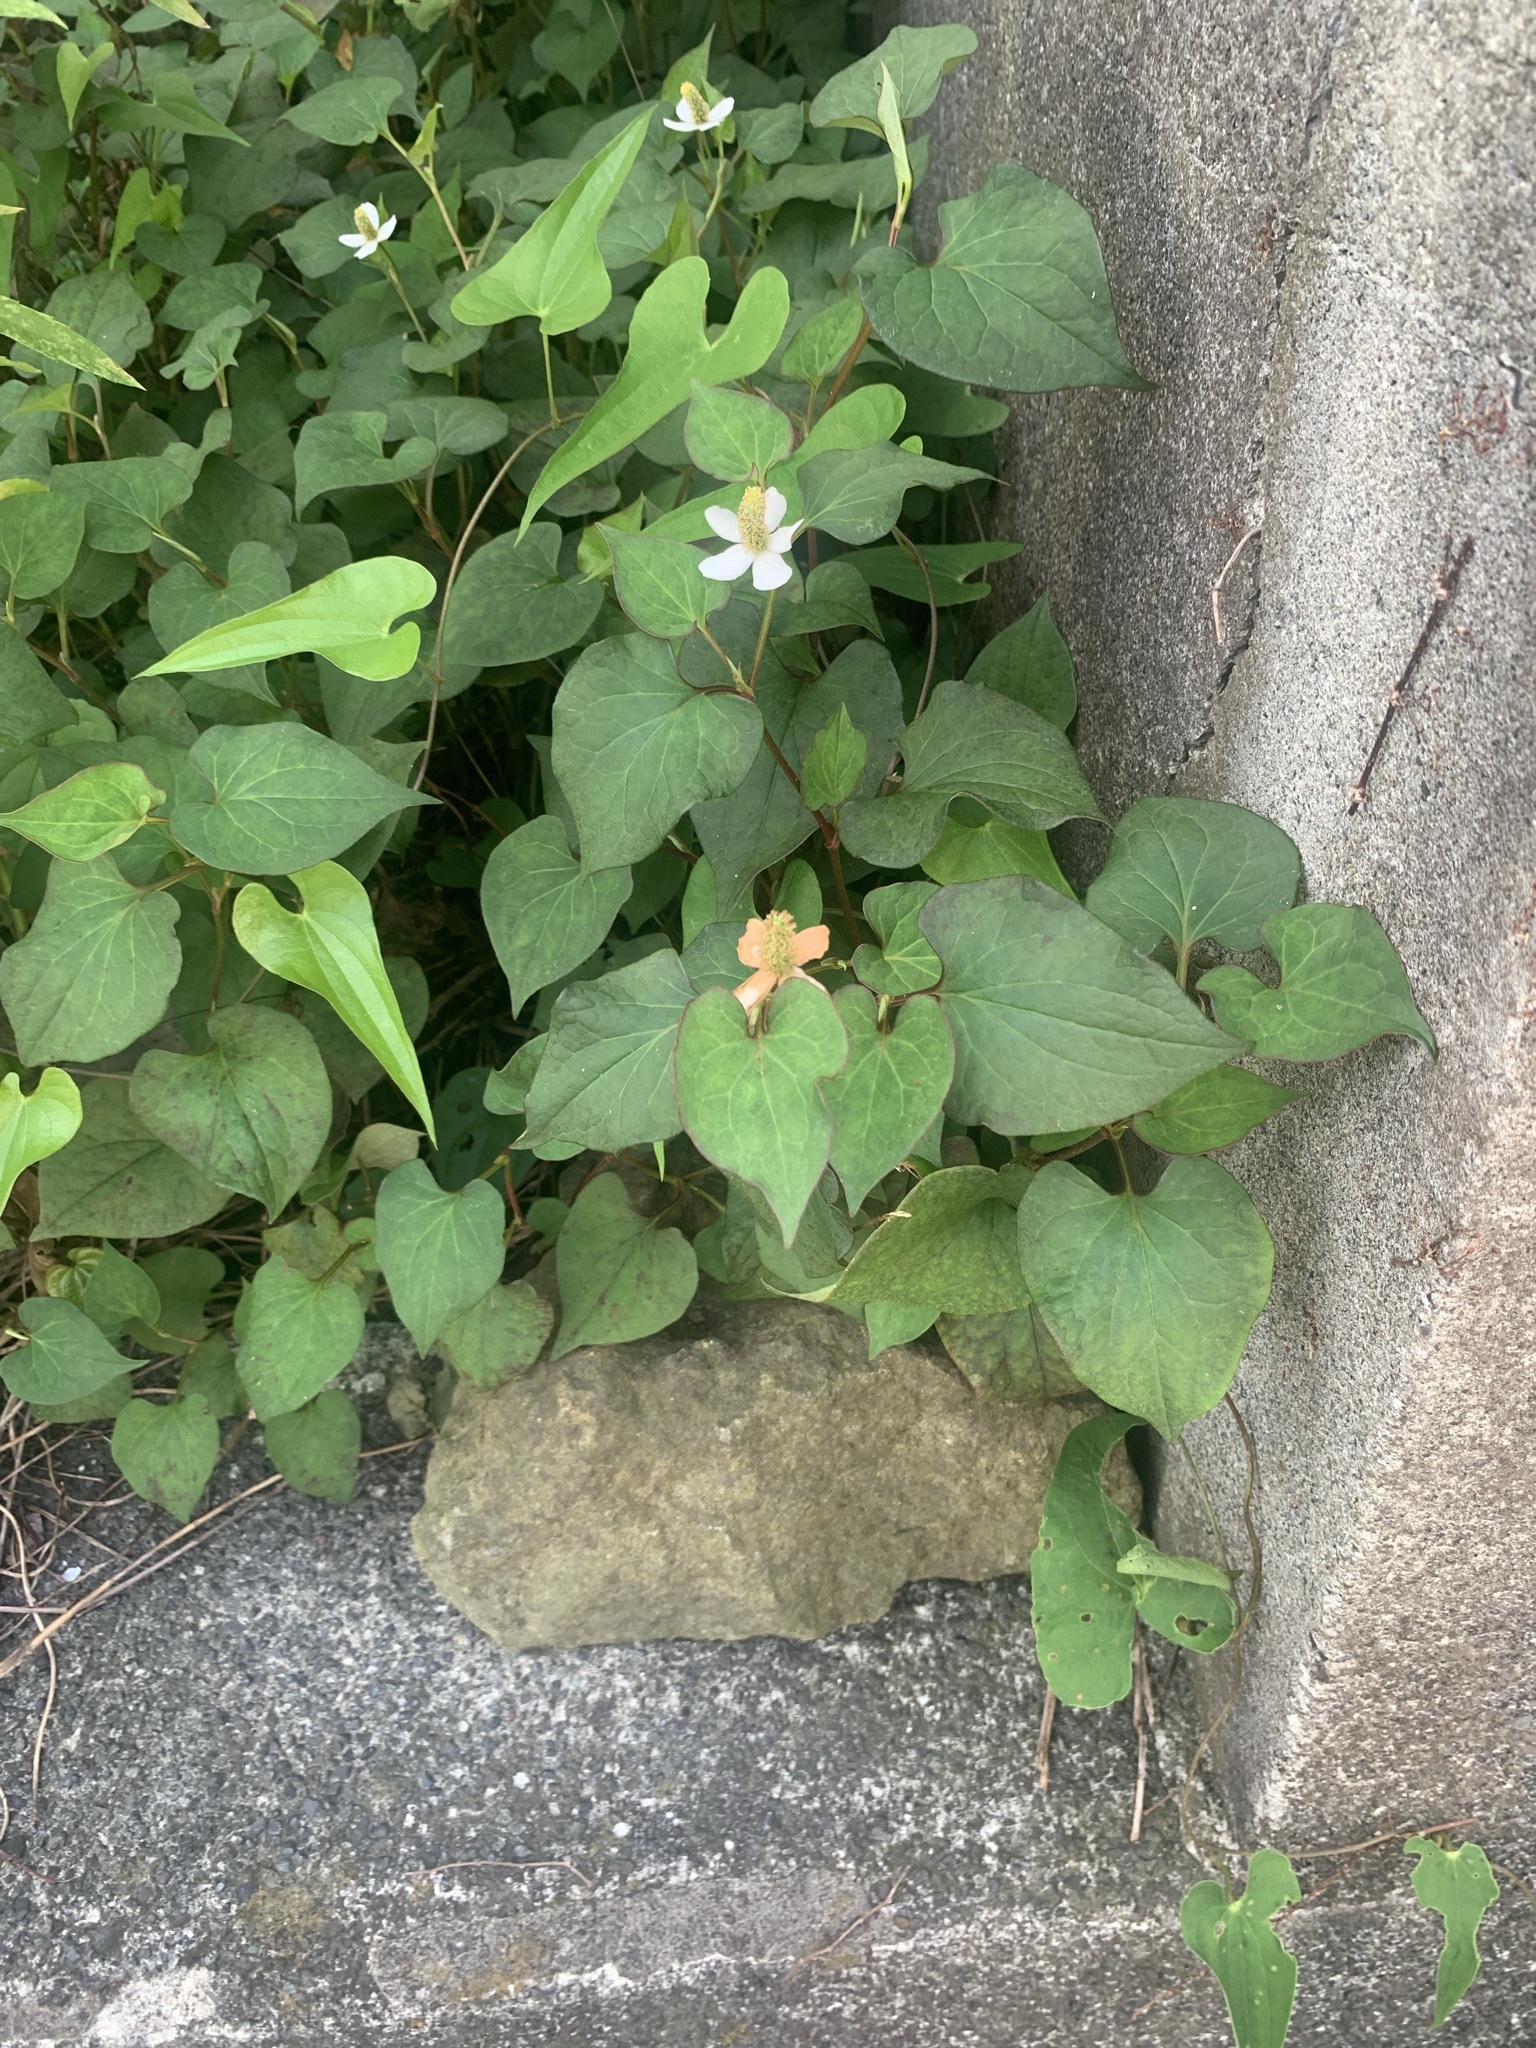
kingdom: Plantae
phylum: Tracheophyta
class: Magnoliopsida
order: Piperales
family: Saururaceae
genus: Houttuynia
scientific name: Houttuynia cordata
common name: Chameleon
